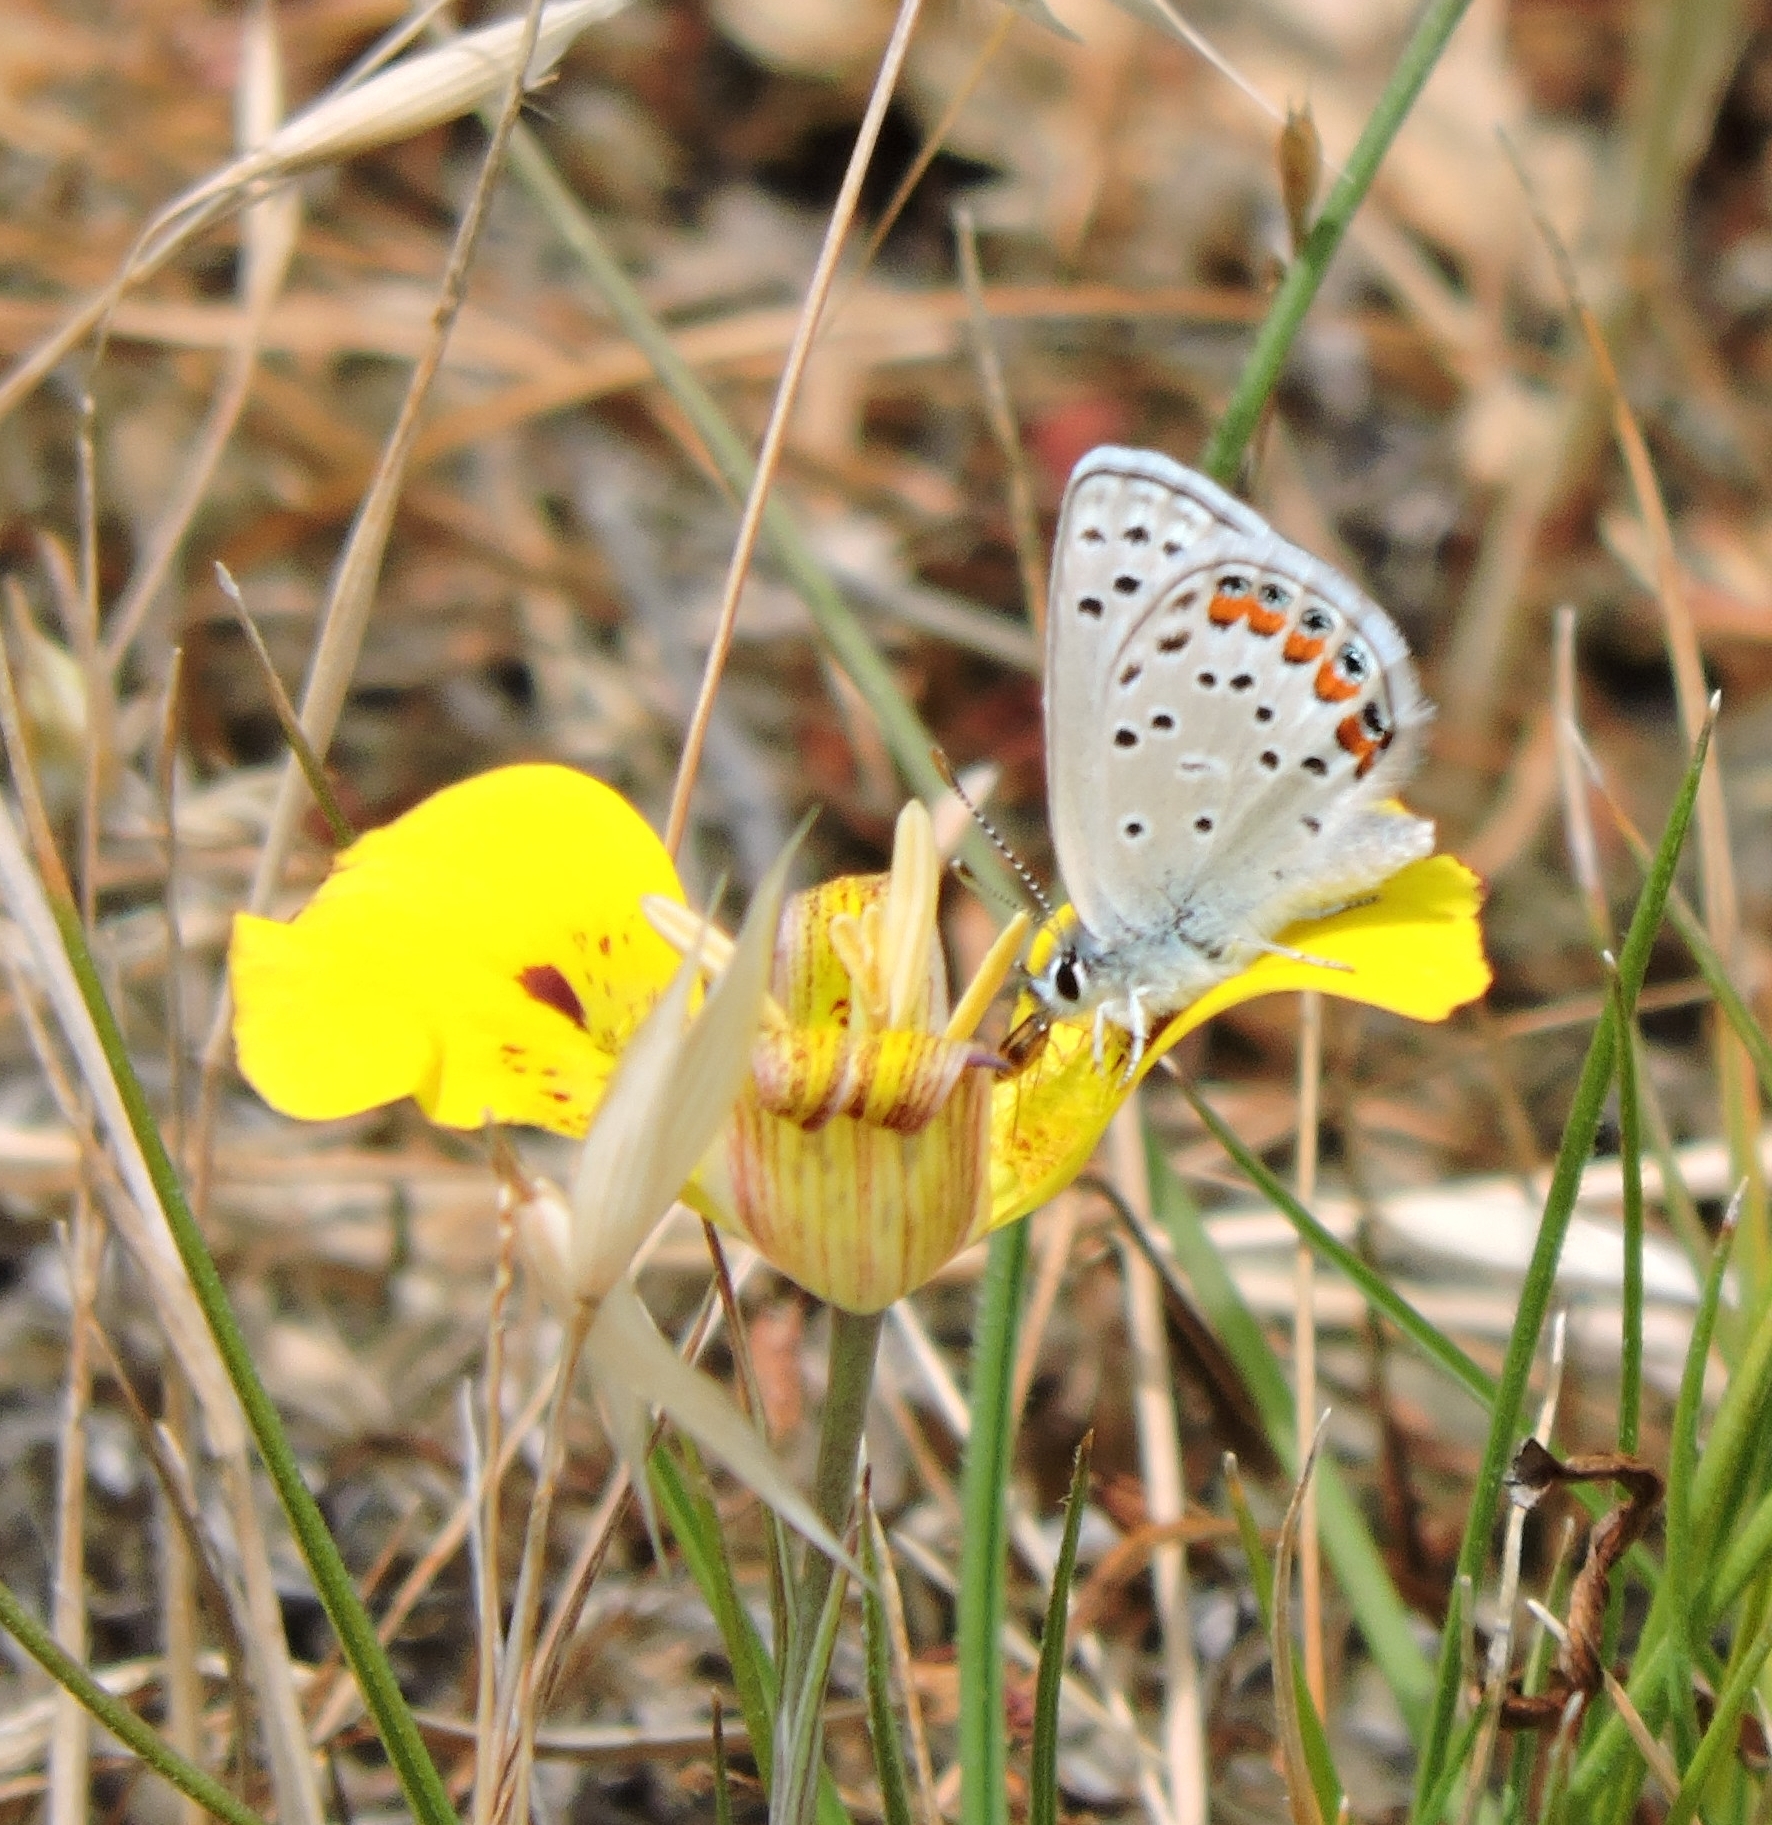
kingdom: Animalia
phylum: Arthropoda
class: Insecta
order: Lepidoptera
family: Lycaenidae
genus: Icaricia
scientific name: Icaricia acmon
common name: Acmon blue
